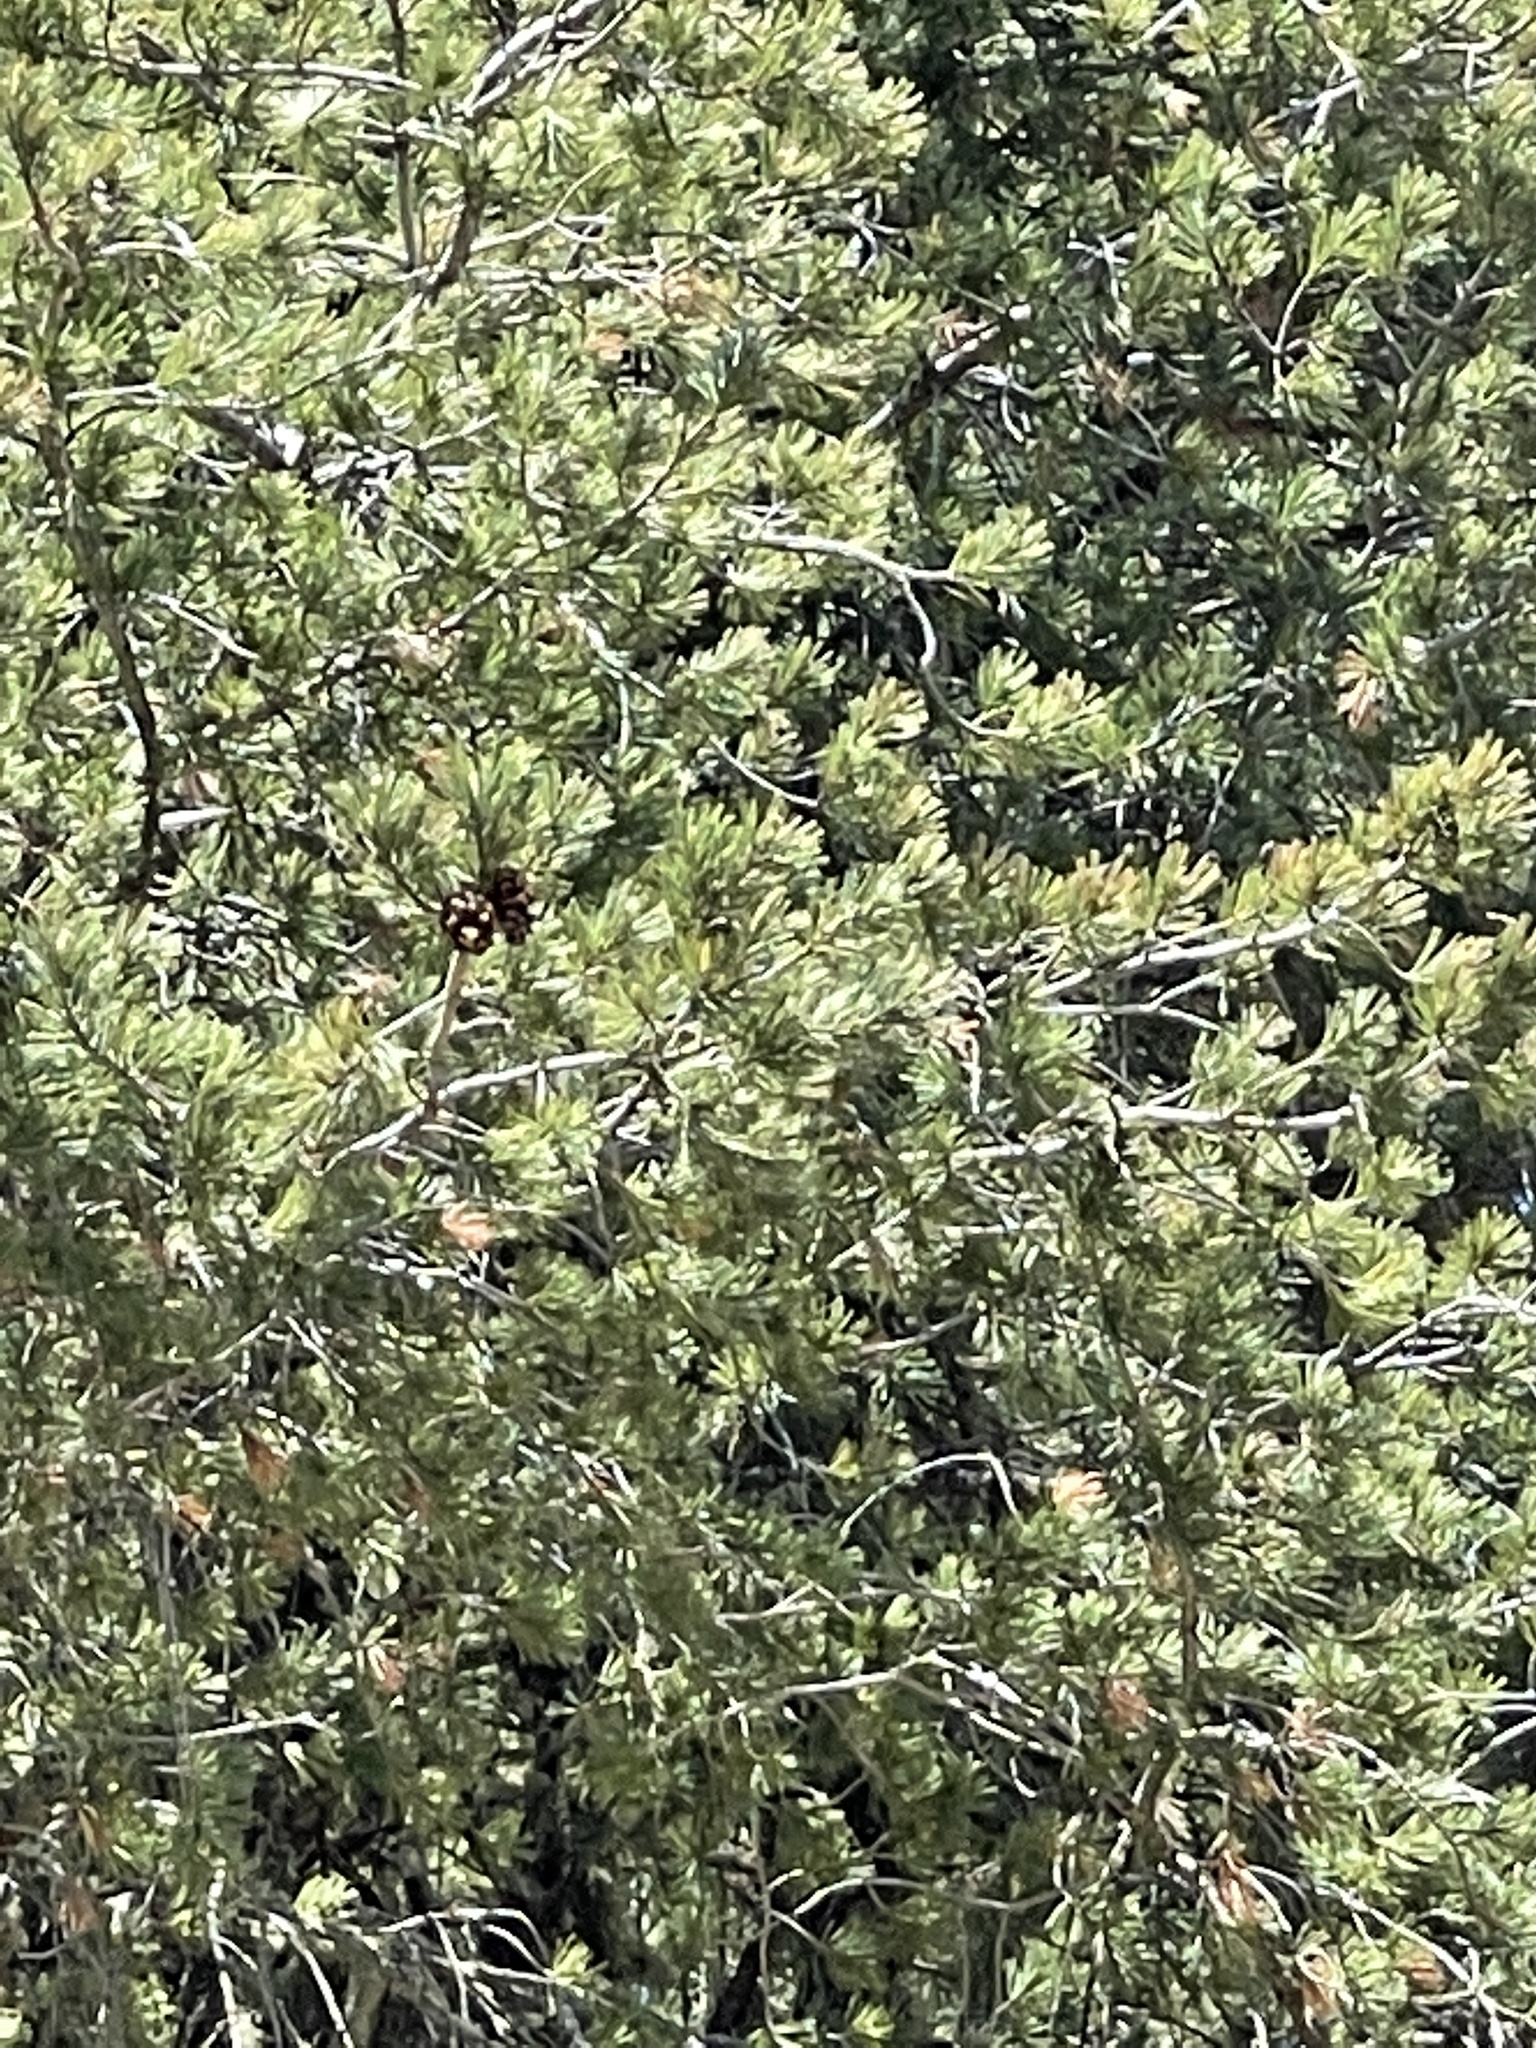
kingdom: Plantae
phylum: Tracheophyta
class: Pinopsida
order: Pinales
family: Pinaceae
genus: Pinus
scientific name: Pinus strobiformis
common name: Southwestern white pine
